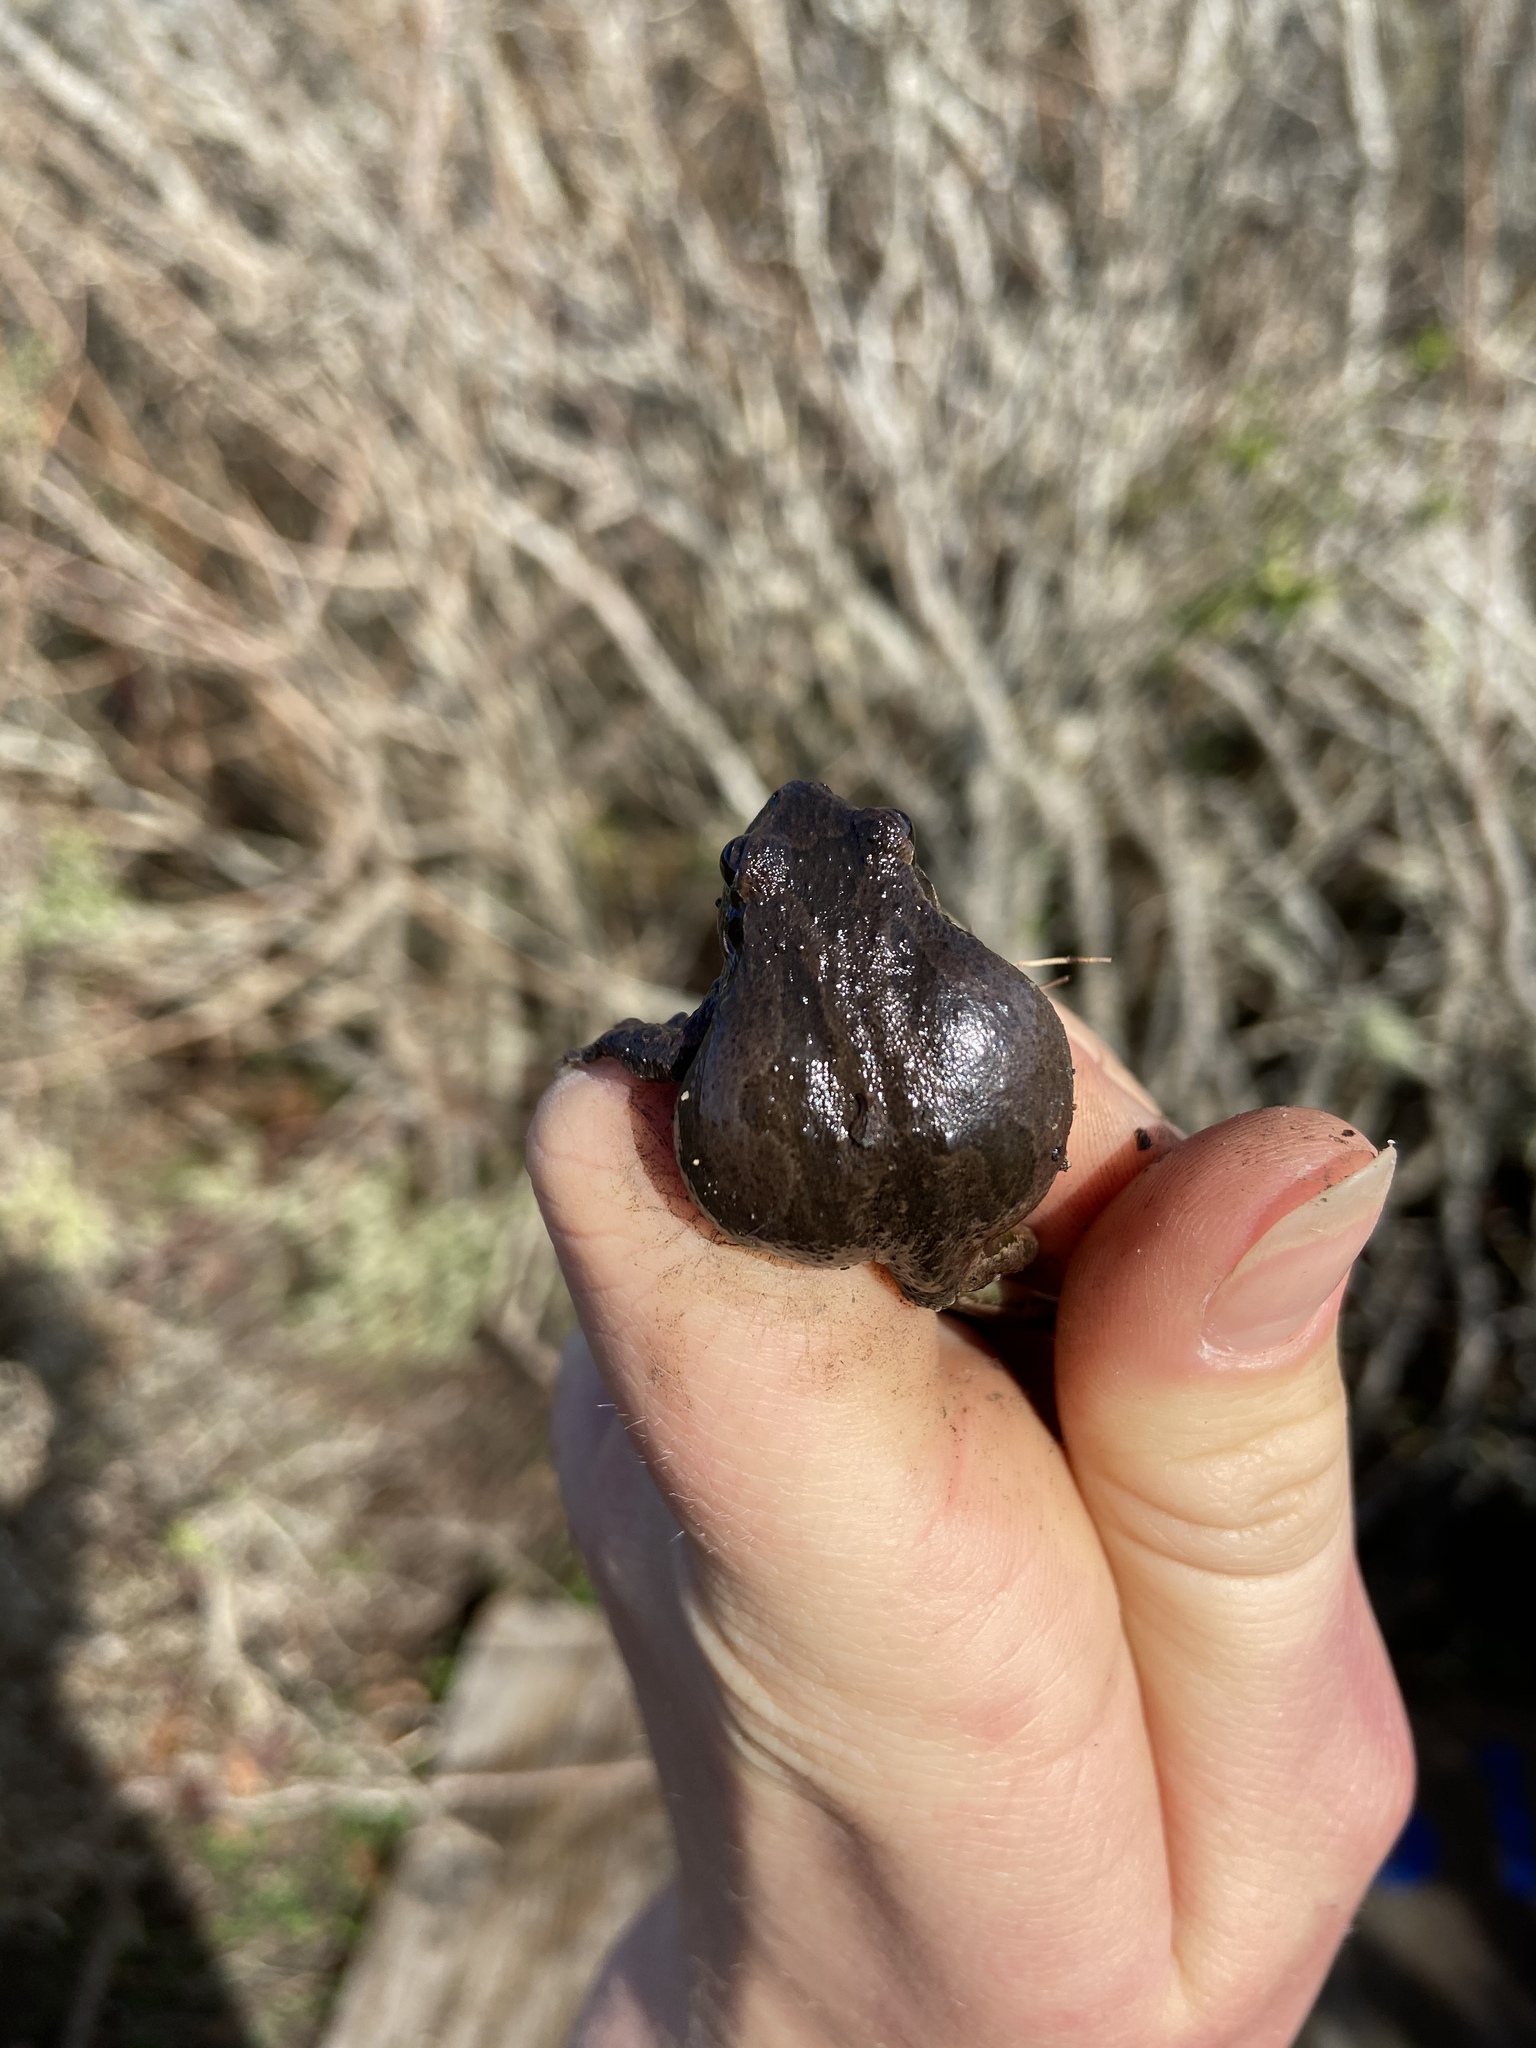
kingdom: Animalia
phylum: Chordata
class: Amphibia
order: Anura
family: Hylidae
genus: Pseudacris
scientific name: Pseudacris regilla
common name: Pacific chorus frog
